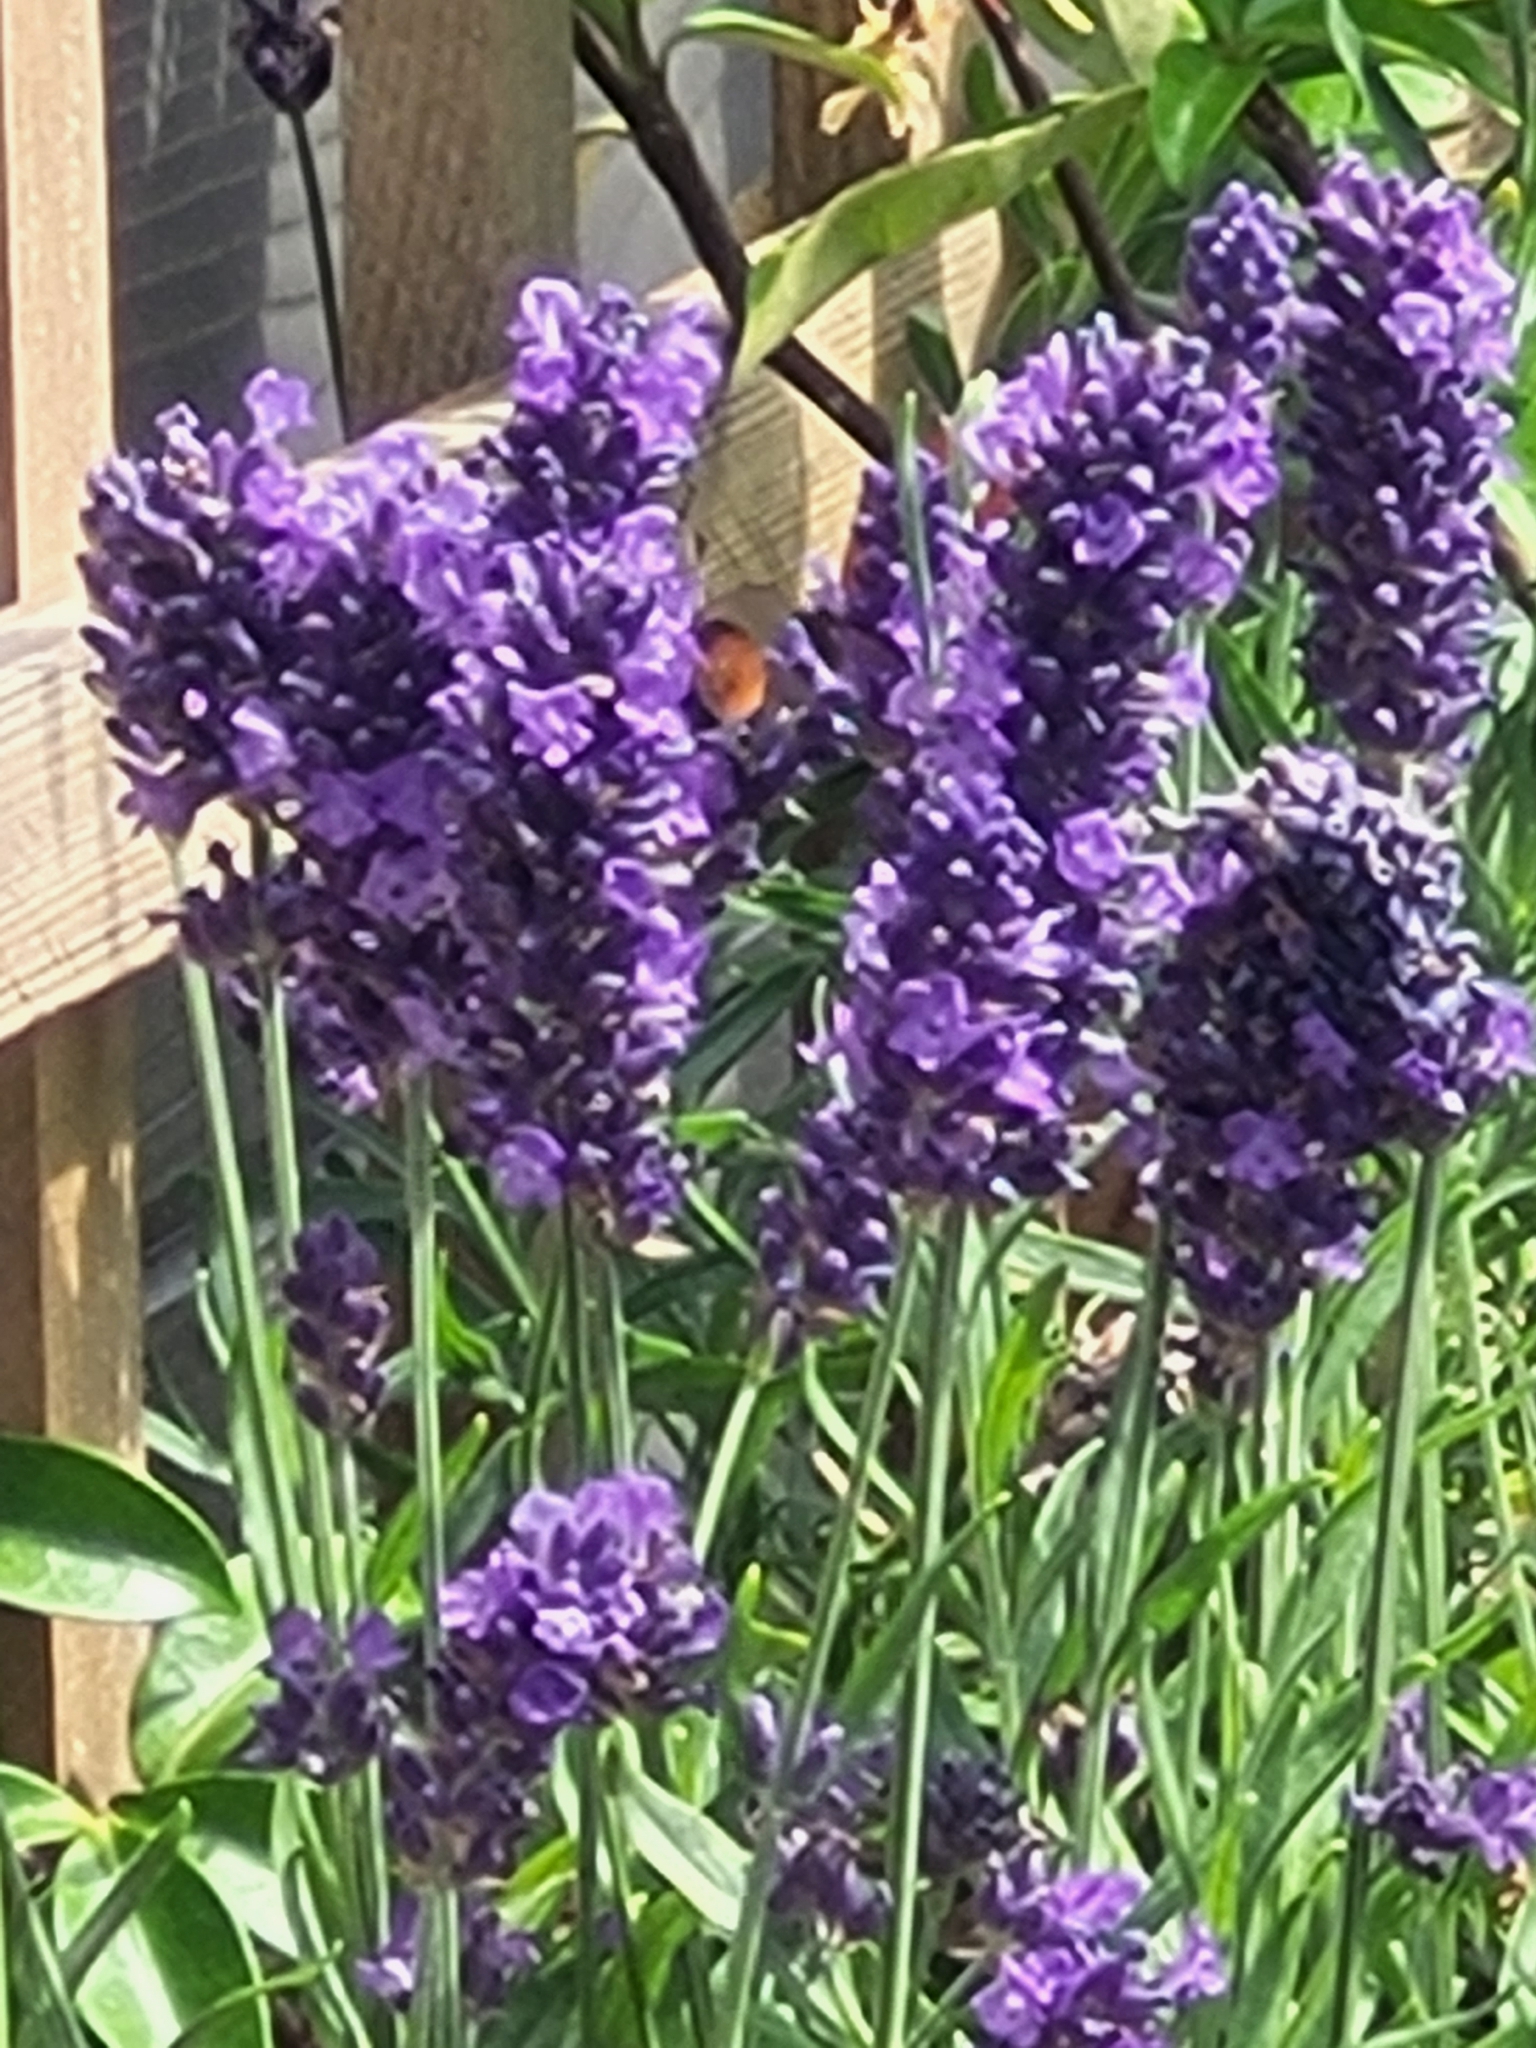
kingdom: Animalia
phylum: Arthropoda
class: Insecta
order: Hymenoptera
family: Apidae
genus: Bombus
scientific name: Bombus lapidarius
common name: Large red-tailed humble-bee
